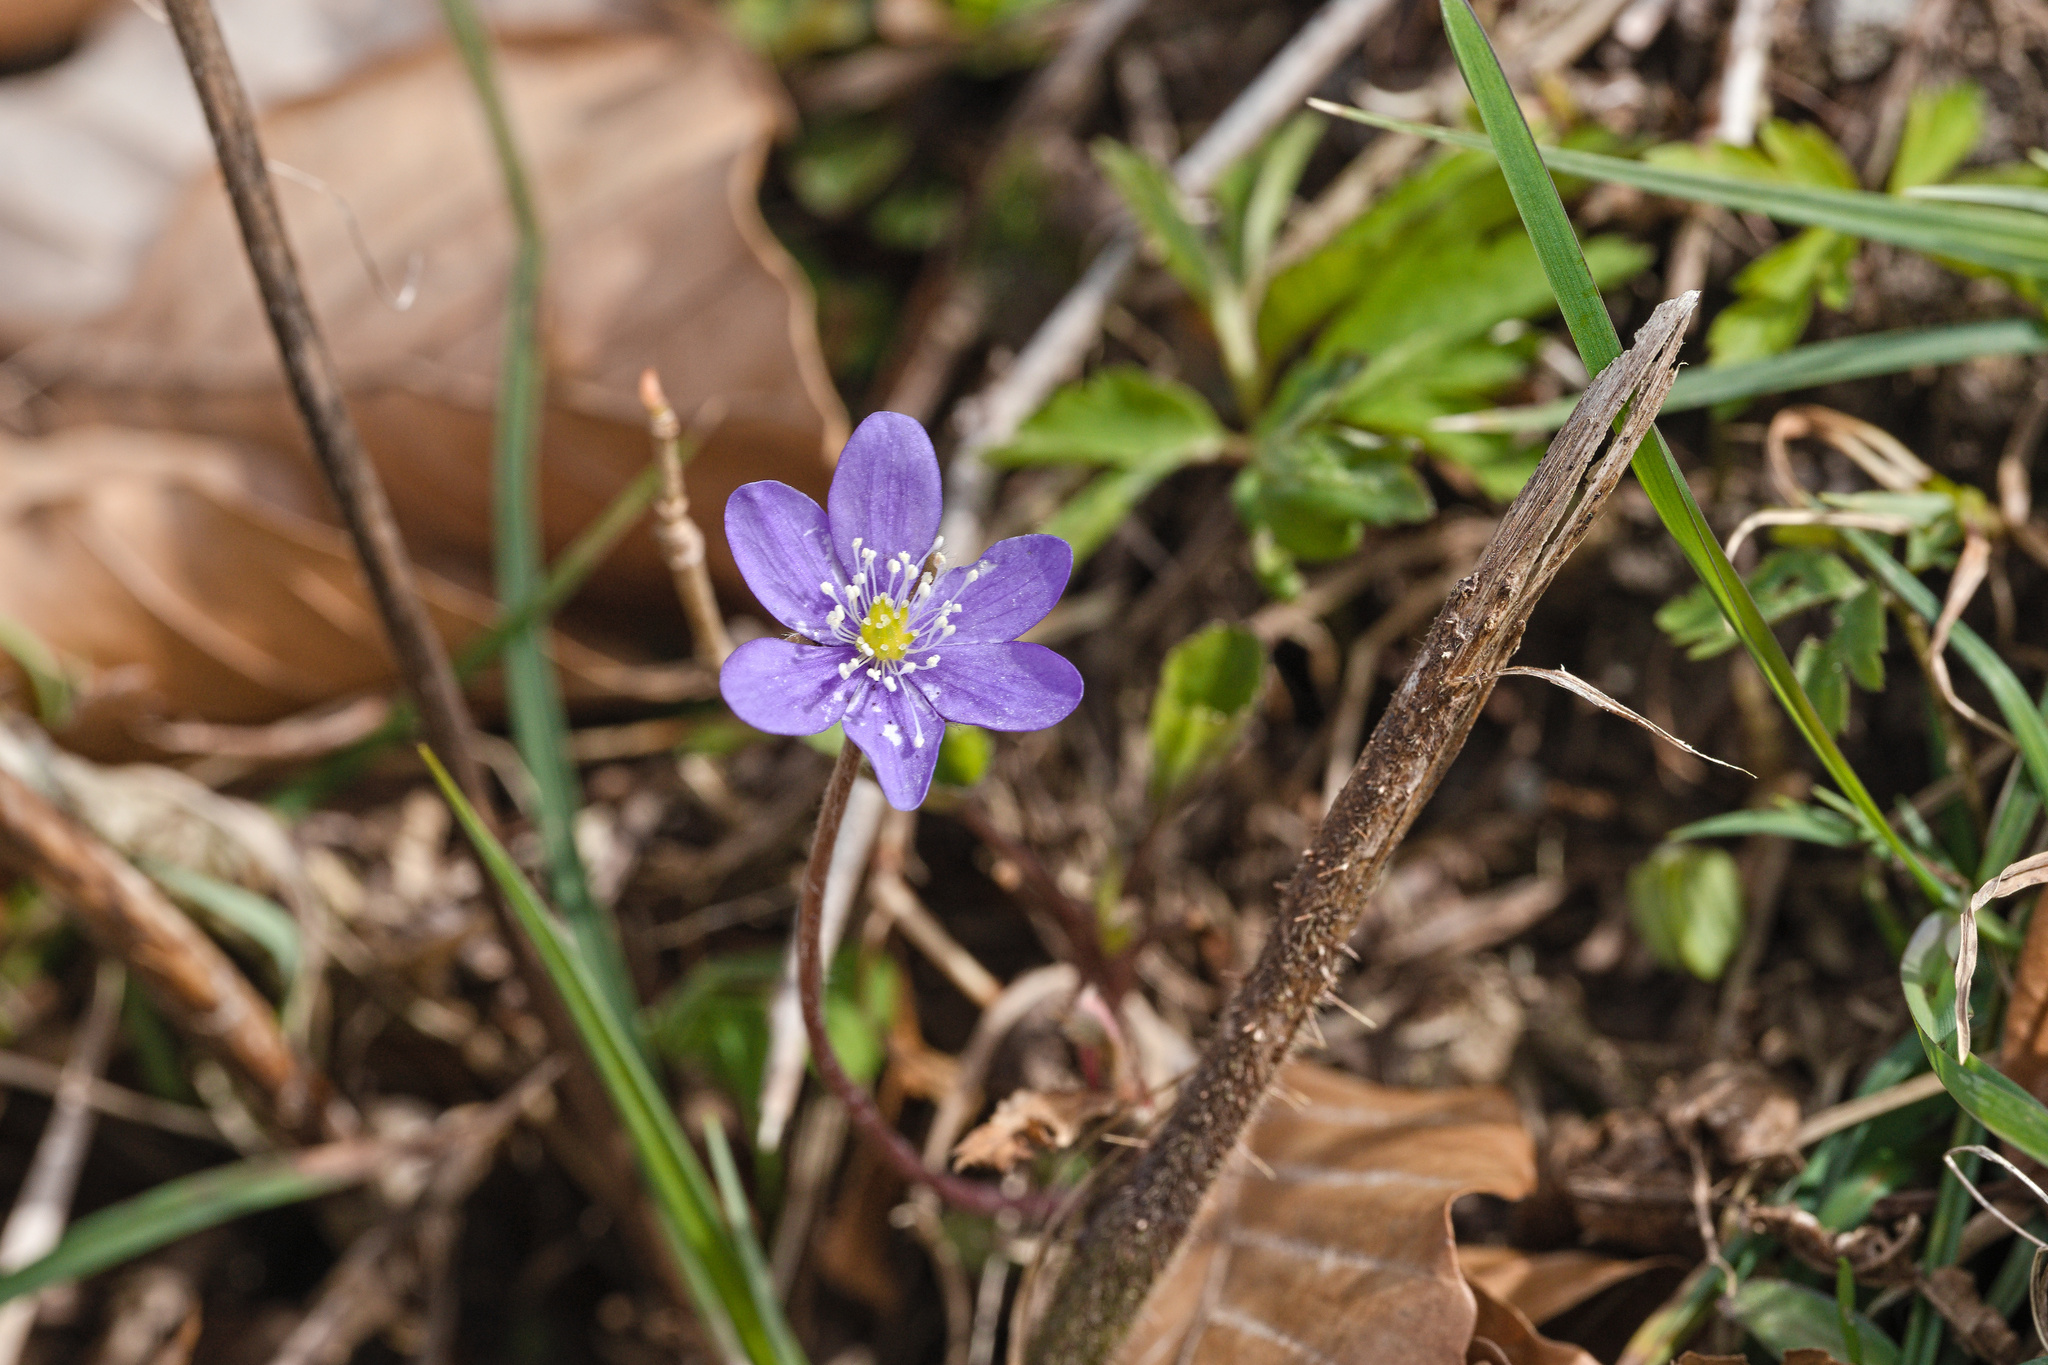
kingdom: Plantae
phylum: Tracheophyta
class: Magnoliopsida
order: Ranunculales
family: Ranunculaceae
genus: Hepatica
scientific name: Hepatica nobilis
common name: Liverleaf
